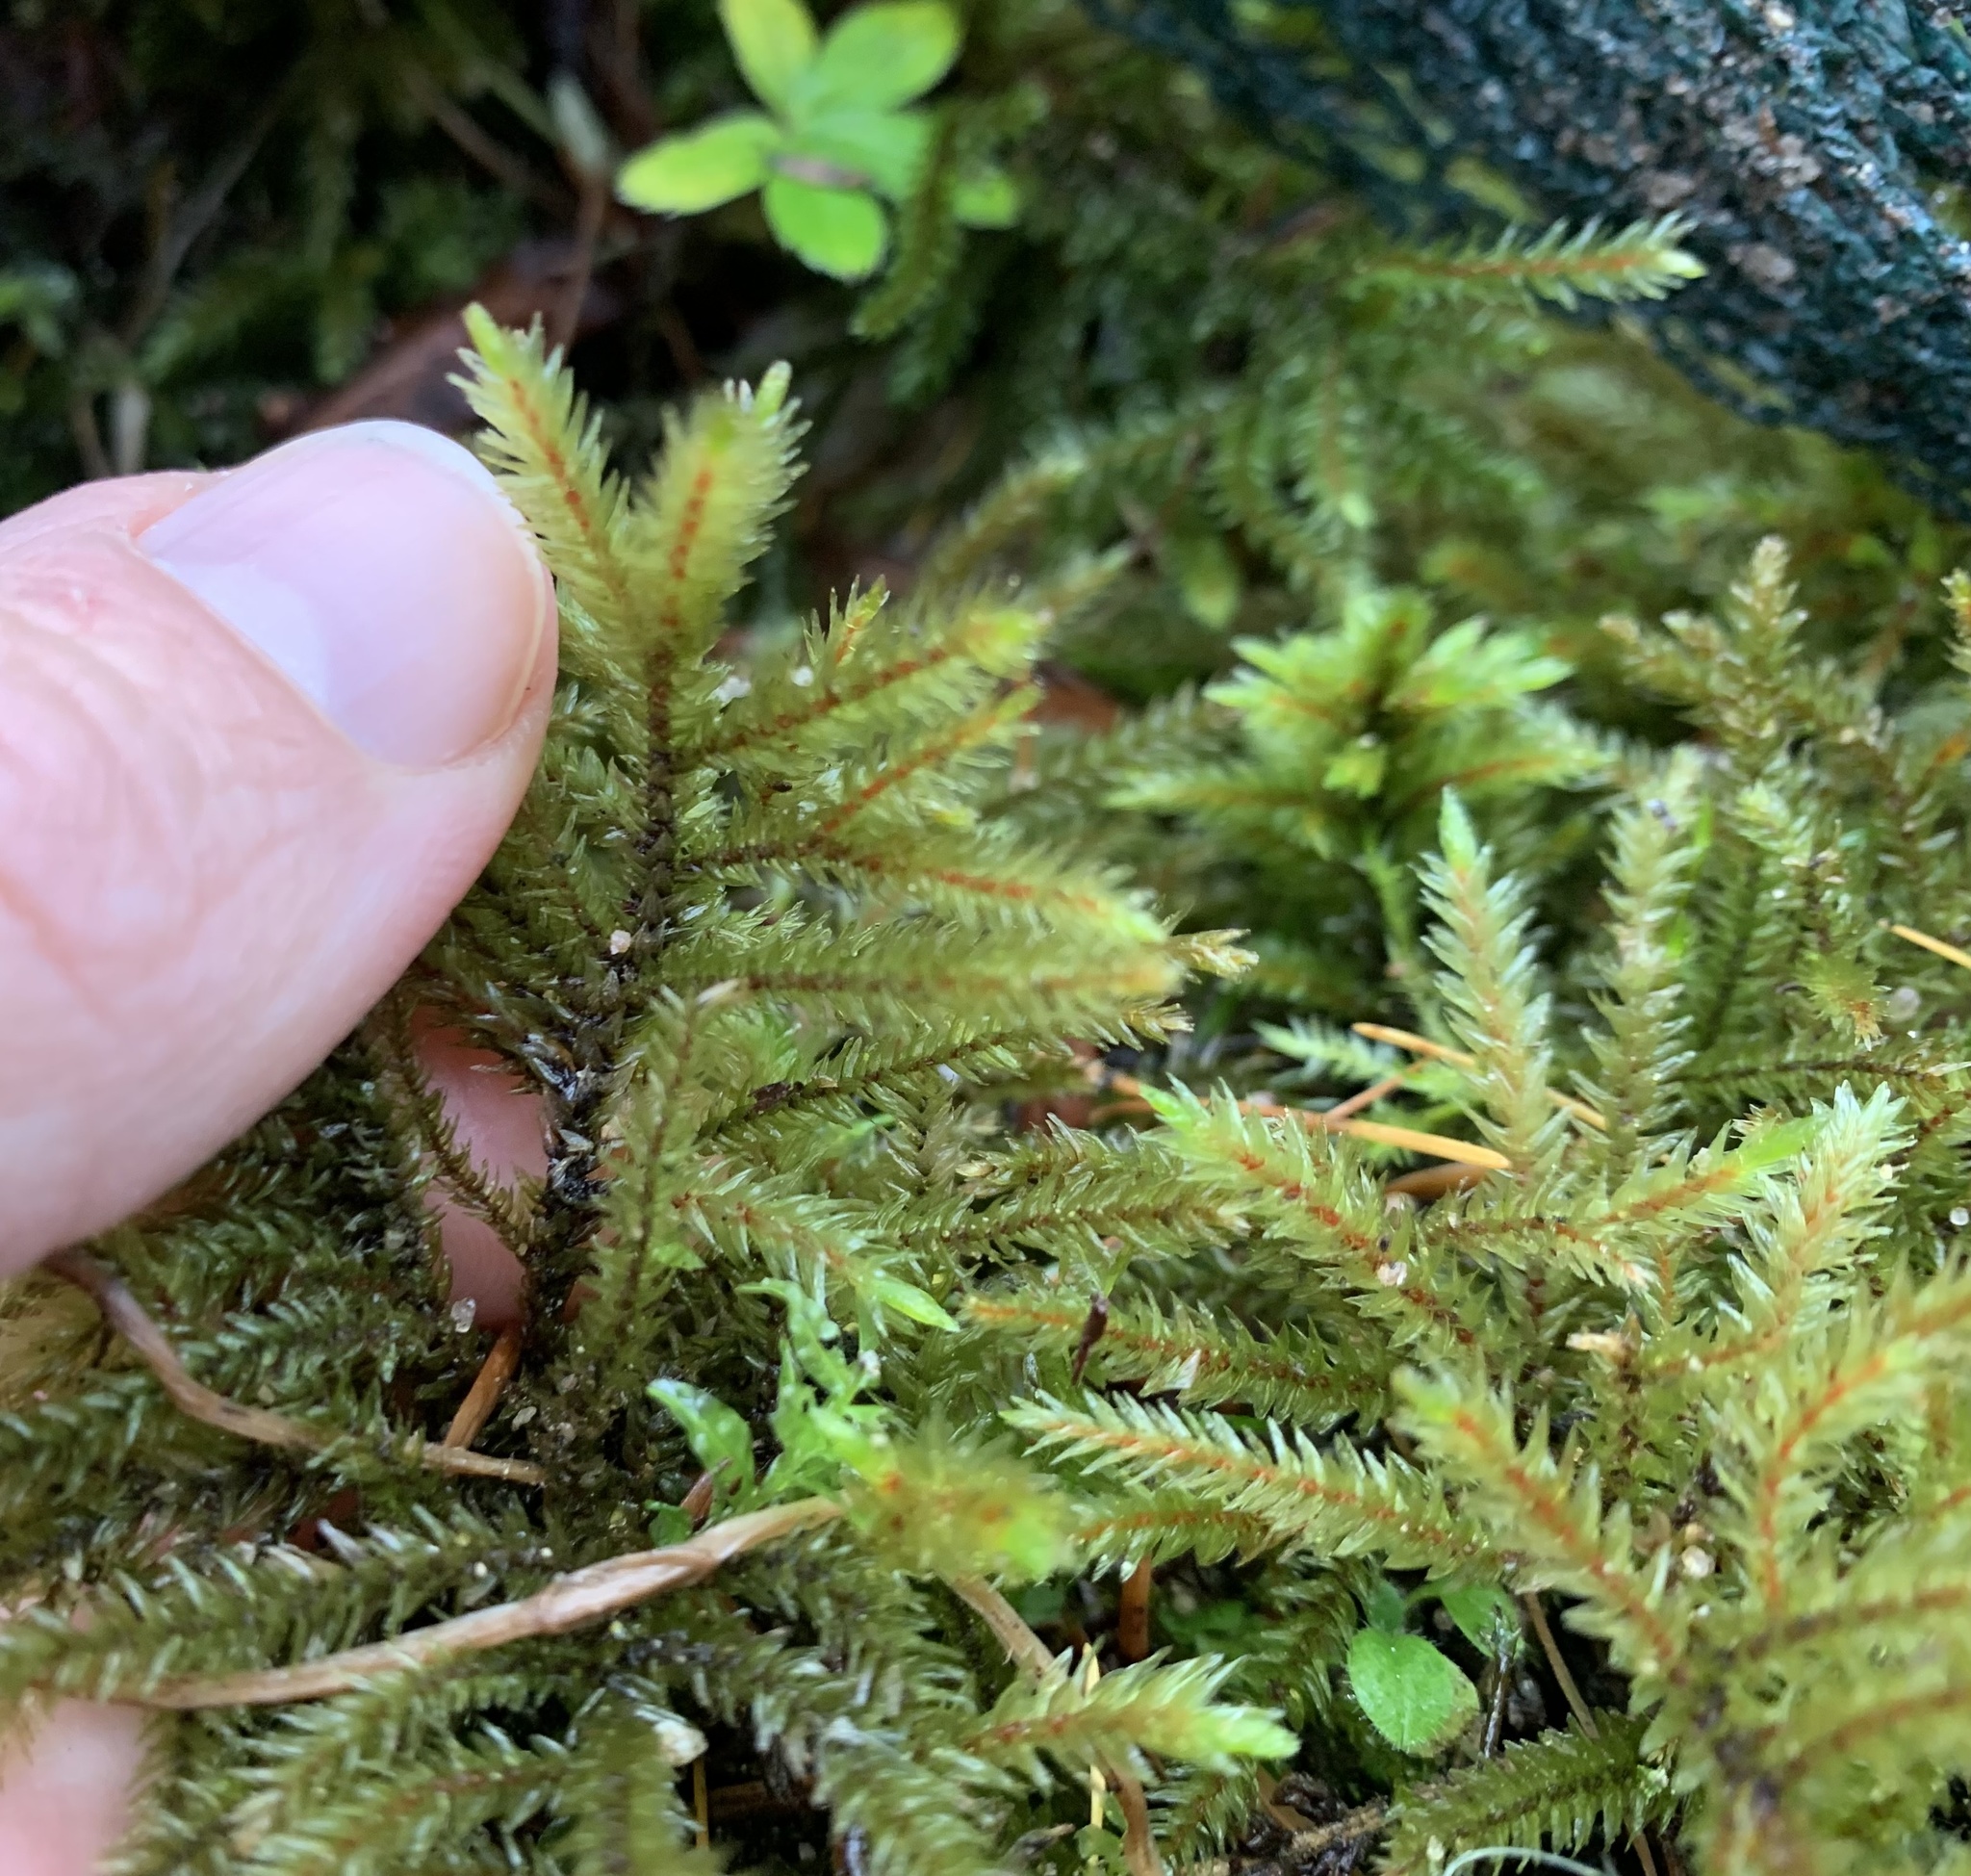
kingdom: Plantae
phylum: Bryophyta
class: Bryopsida
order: Hypnales
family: Climaciaceae
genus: Climacium
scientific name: Climacium dendroides
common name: Northern tree moss
